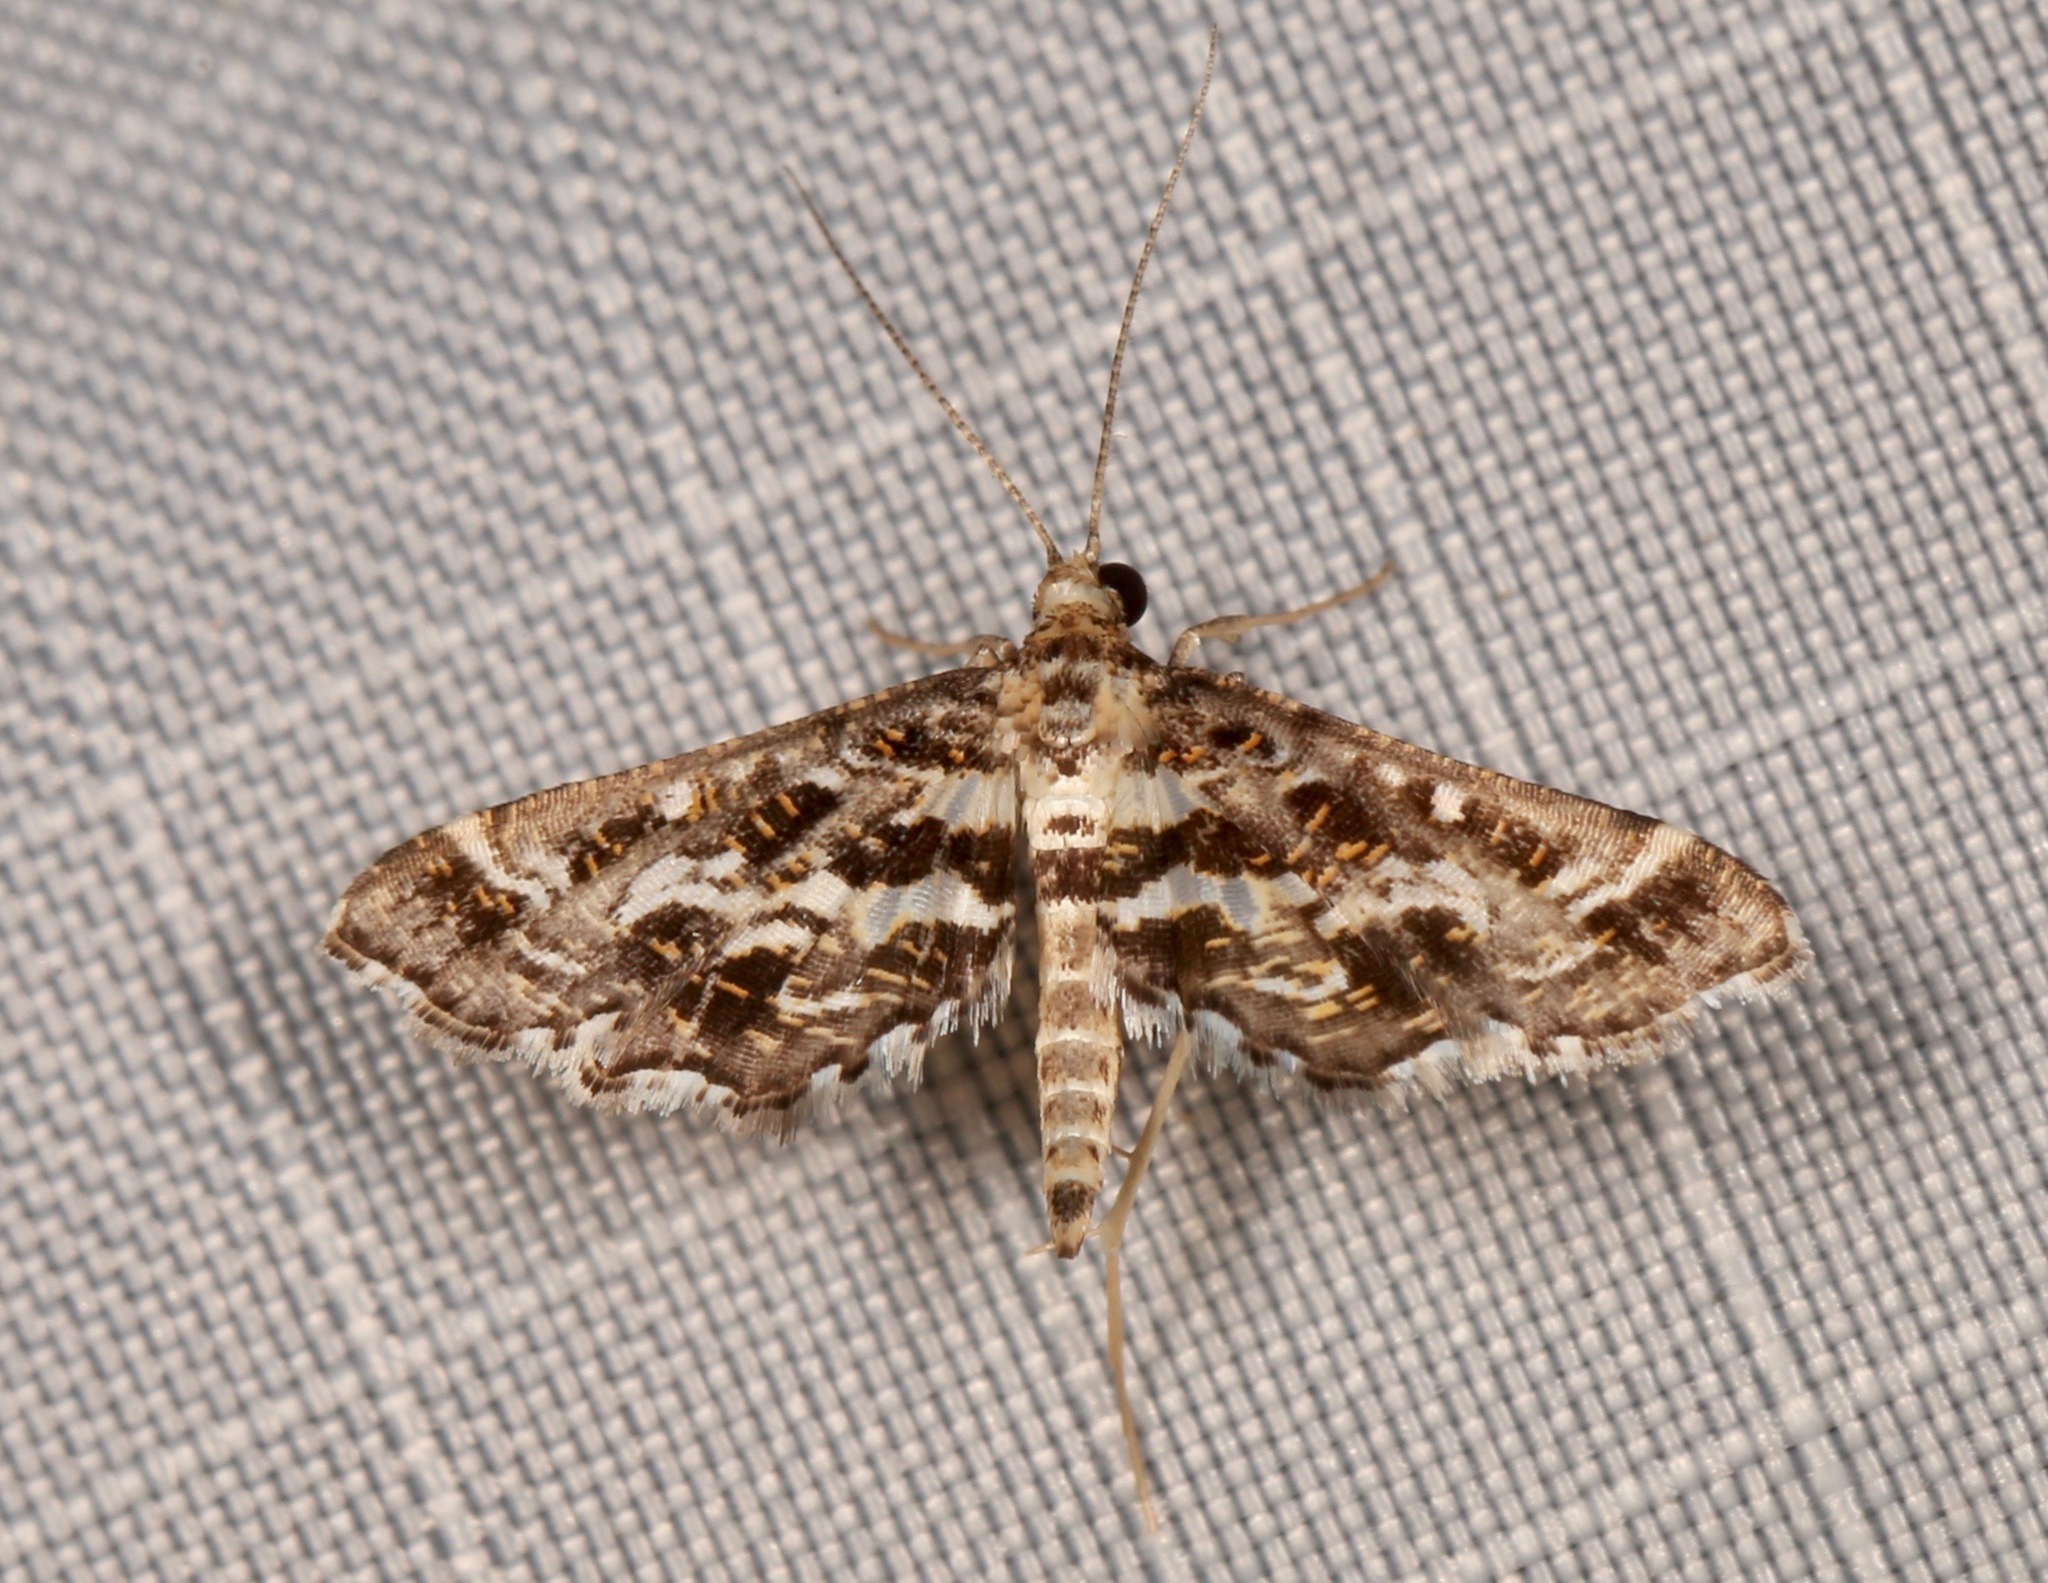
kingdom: Animalia
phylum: Arthropoda
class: Insecta
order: Lepidoptera
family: Crambidae
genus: Diasemiopsis
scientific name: Diasemiopsis ramburialis
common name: Vagrant china-mark
